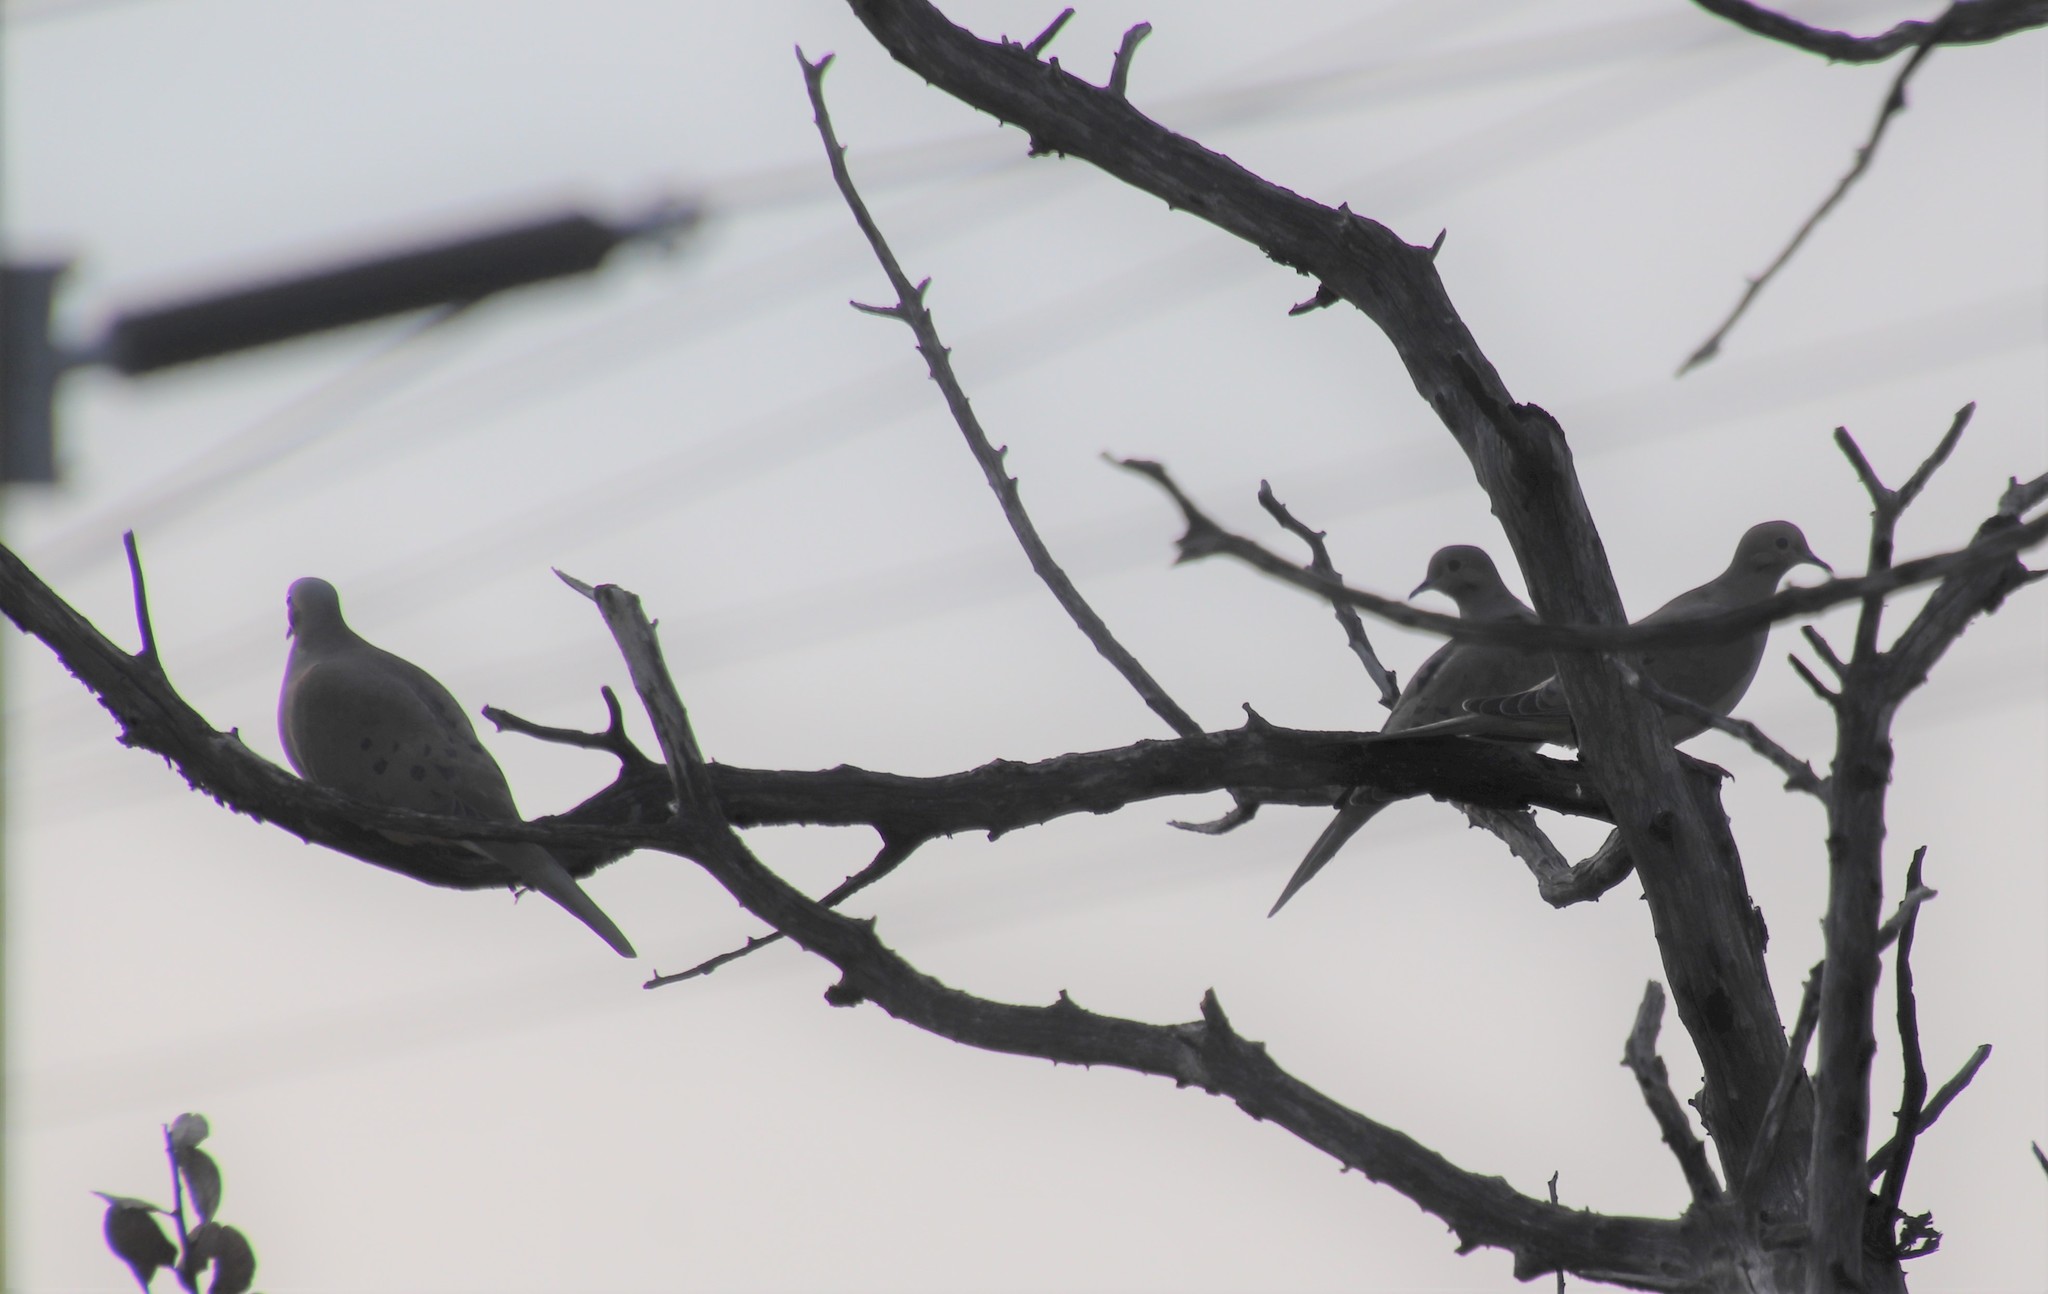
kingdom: Animalia
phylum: Chordata
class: Aves
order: Columbiformes
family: Columbidae
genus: Zenaida
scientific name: Zenaida macroura
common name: Mourning dove
